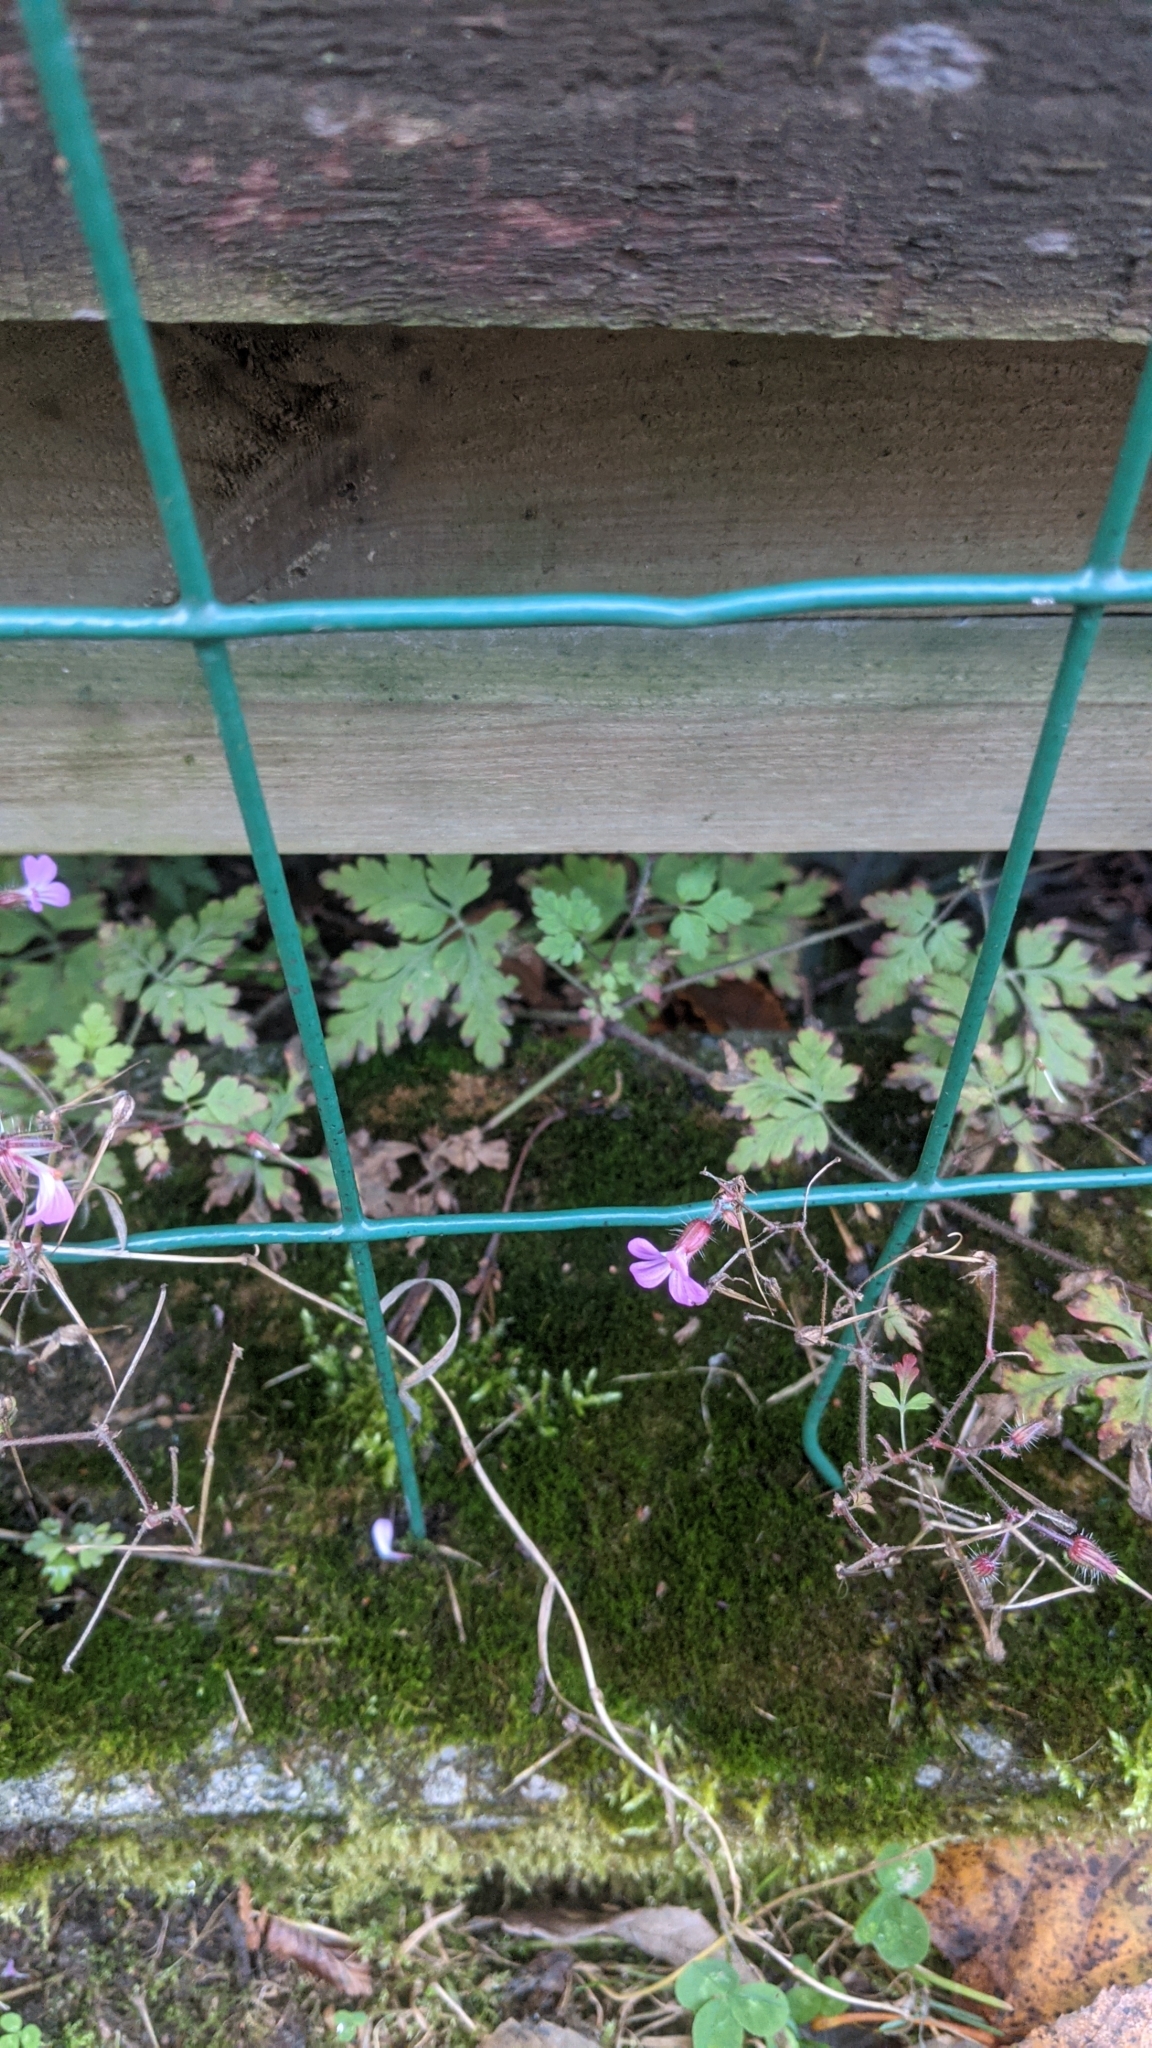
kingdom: Plantae
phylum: Tracheophyta
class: Magnoliopsida
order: Geraniales
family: Geraniaceae
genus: Geranium
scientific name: Geranium robertianum
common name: Herb-robert
